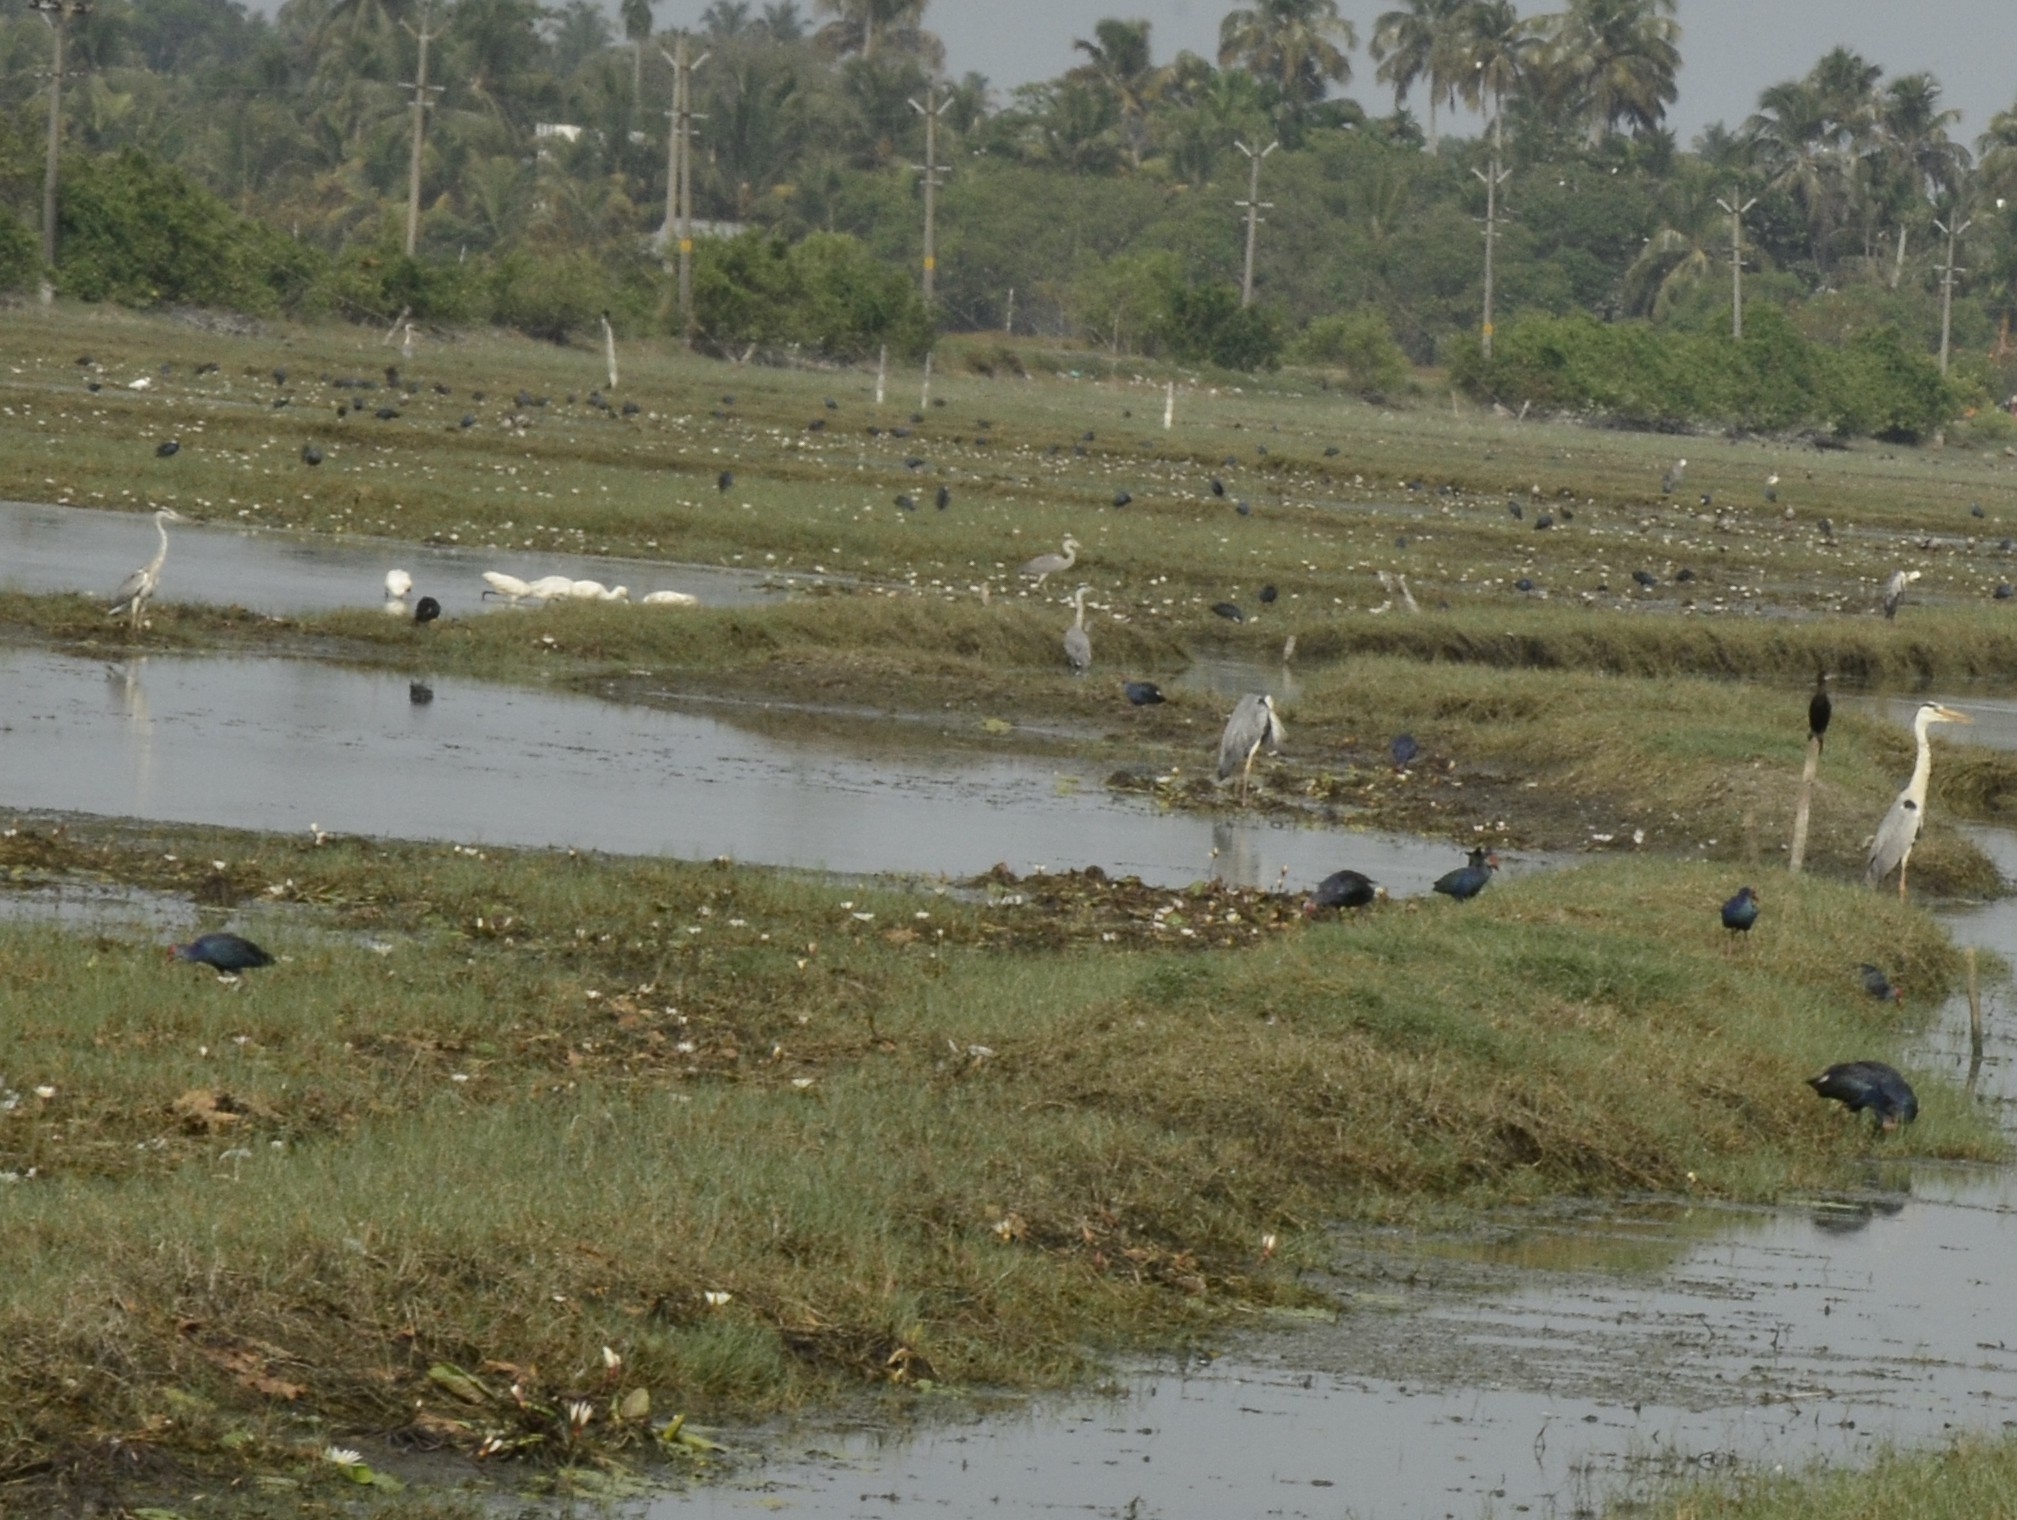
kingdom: Animalia
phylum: Chordata
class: Aves
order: Pelecaniformes
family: Ardeidae
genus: Ardea
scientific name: Ardea cinerea
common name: Grey heron
